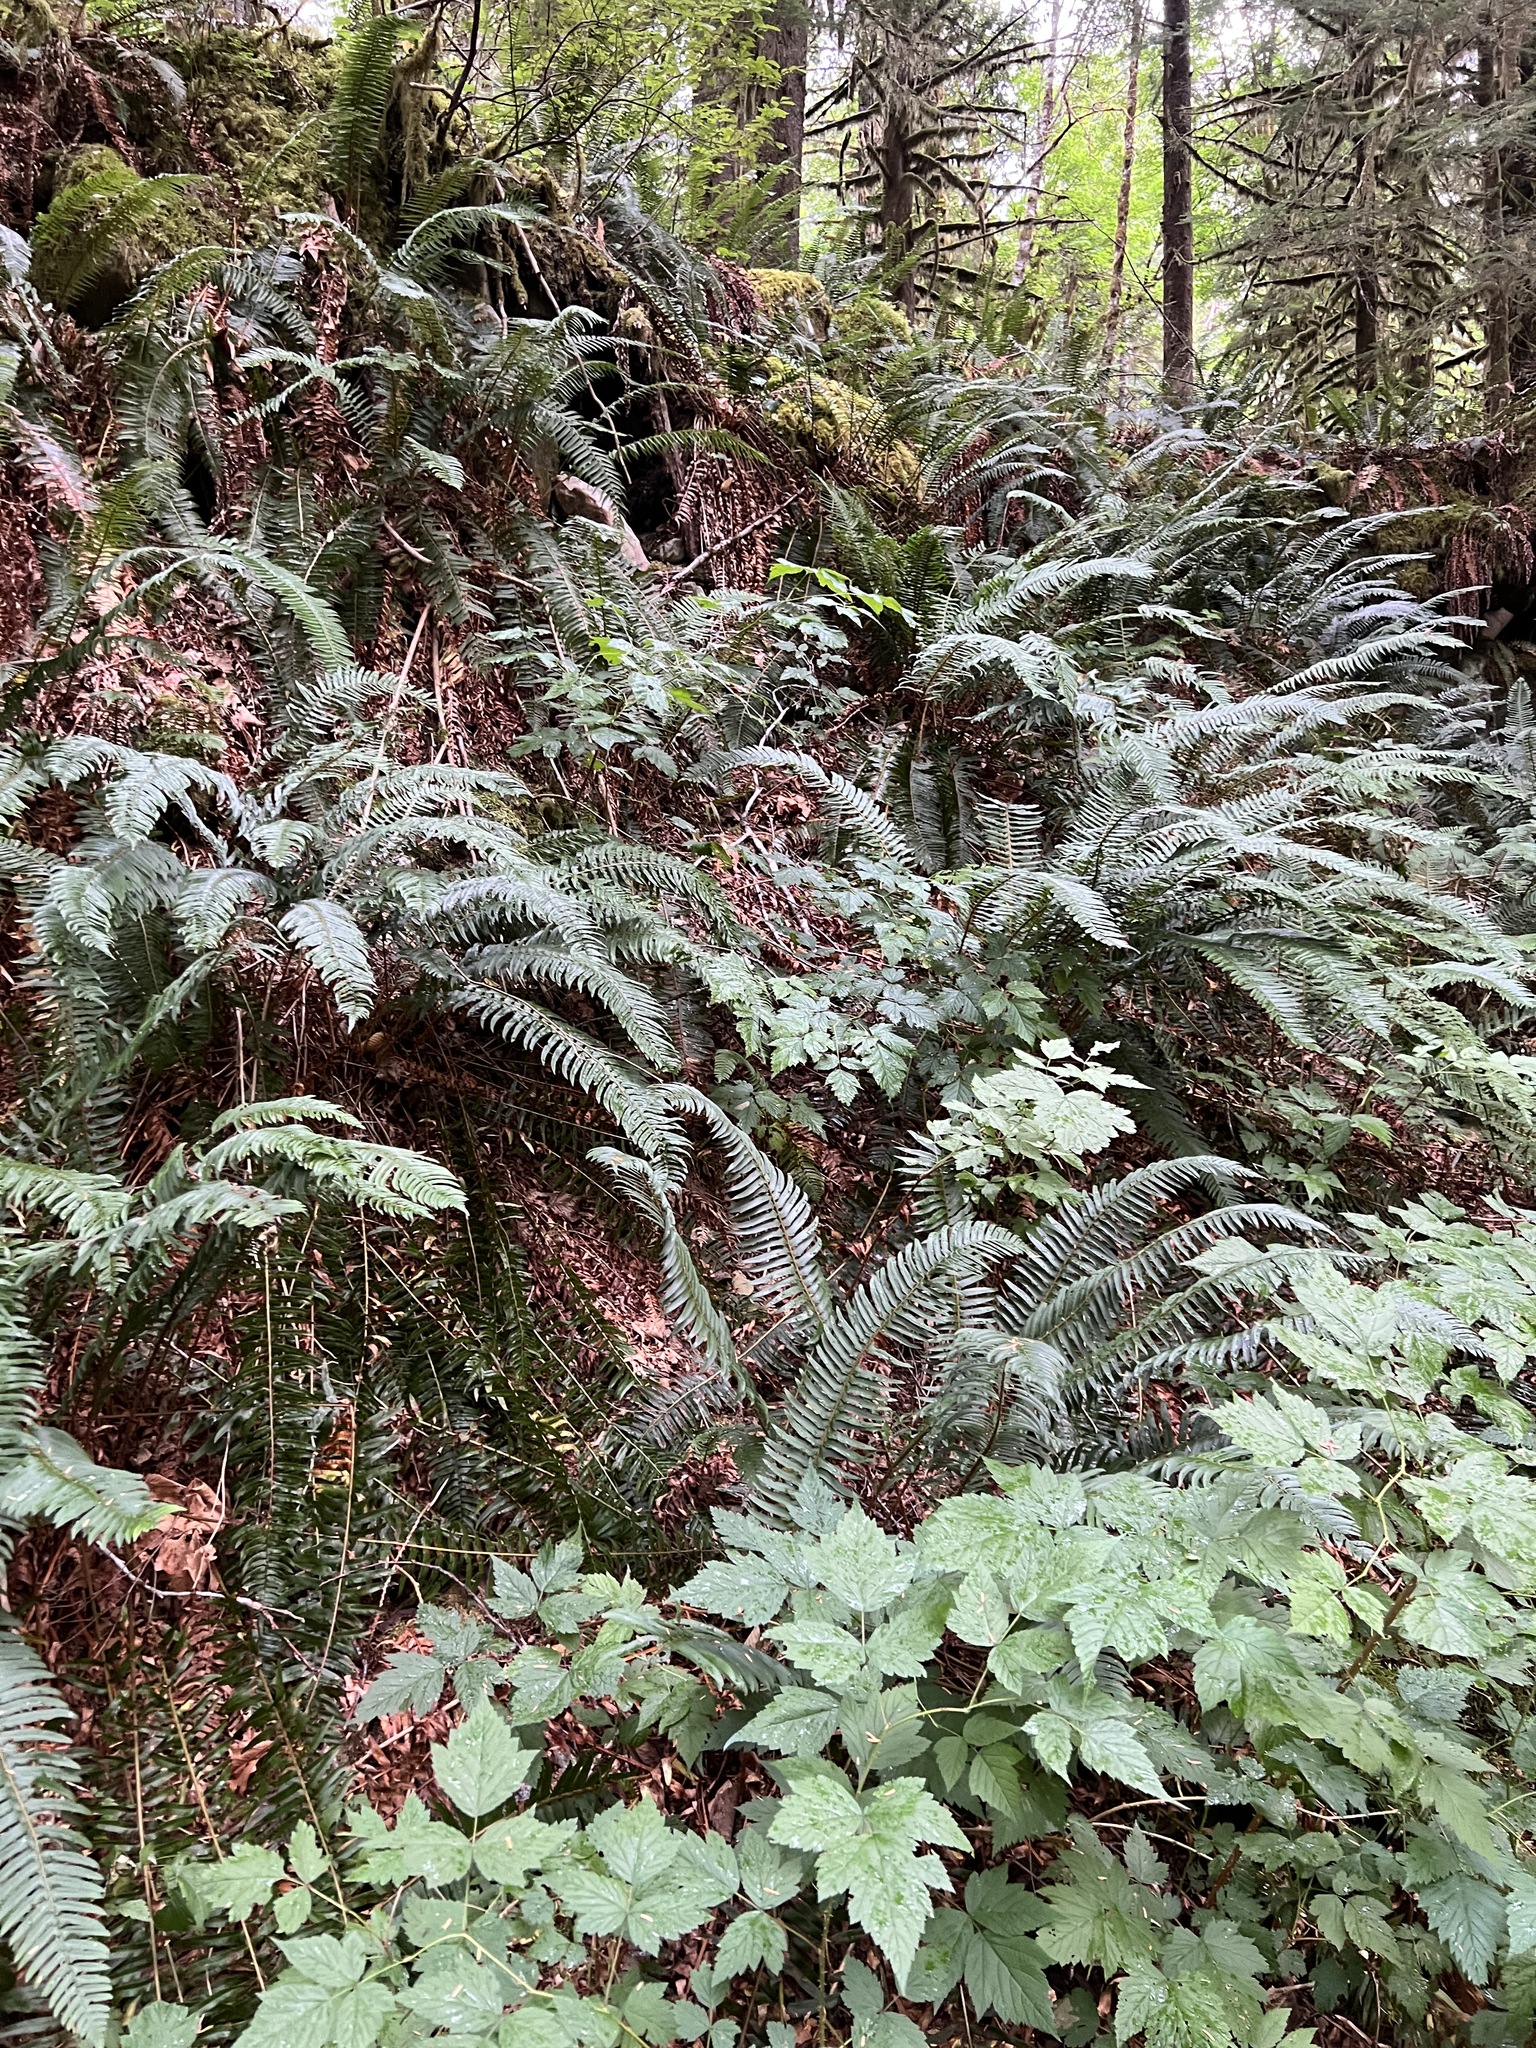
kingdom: Plantae
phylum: Tracheophyta
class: Polypodiopsida
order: Polypodiales
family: Dryopteridaceae
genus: Polystichum
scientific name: Polystichum munitum
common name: Western sword-fern
